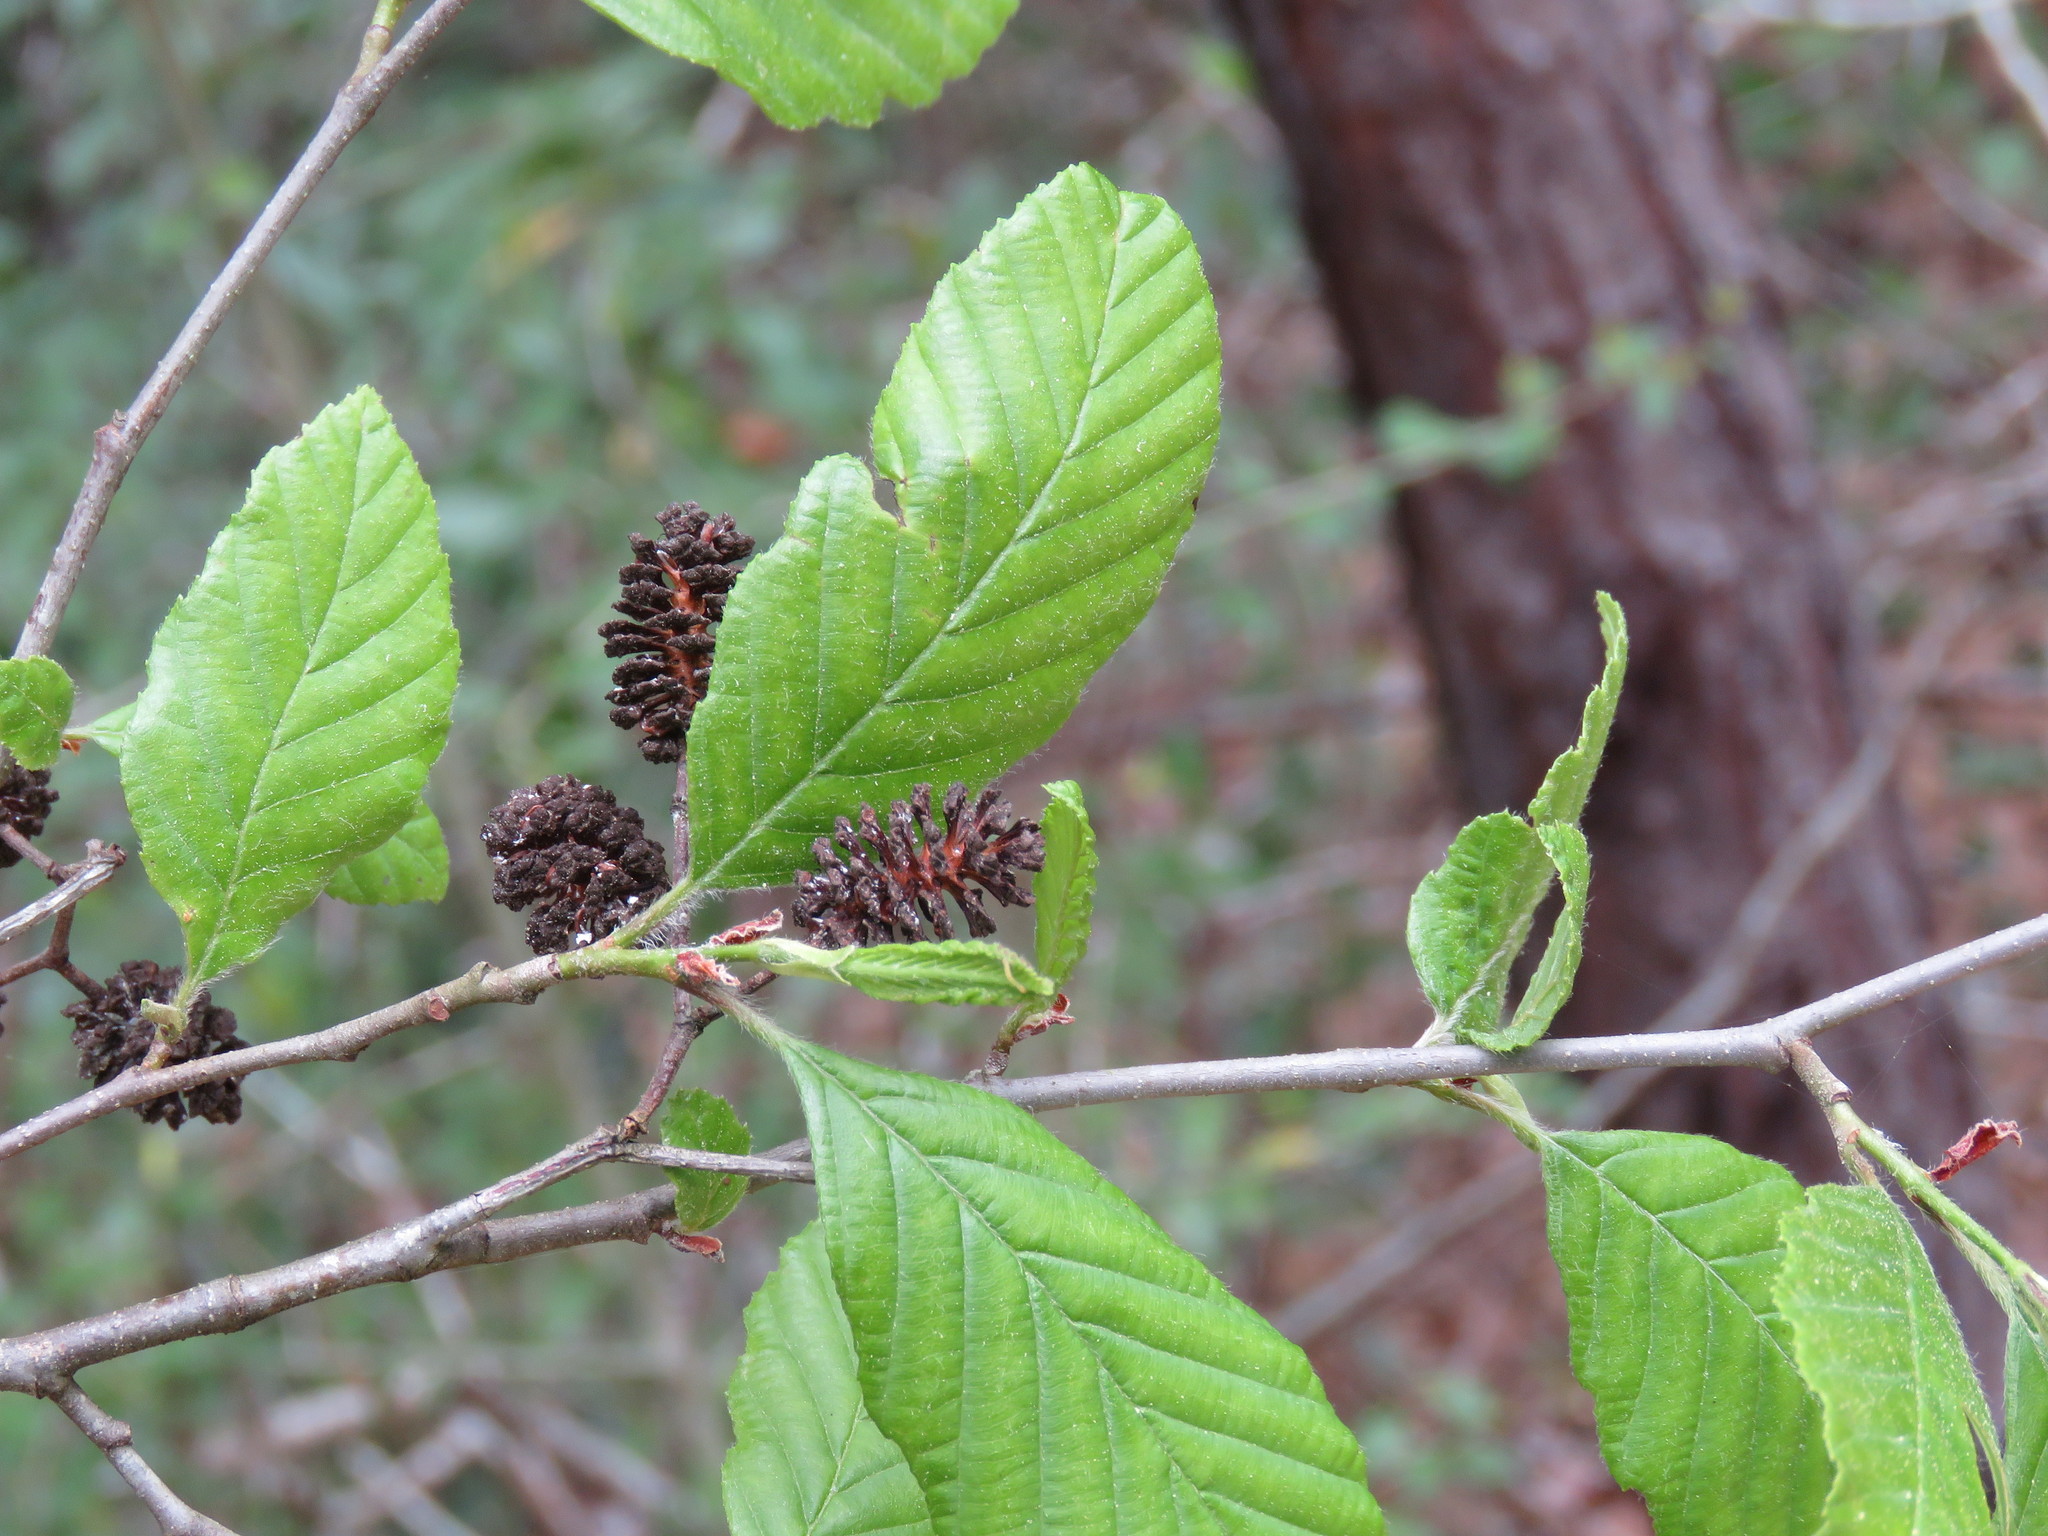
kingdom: Plantae
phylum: Tracheophyta
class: Magnoliopsida
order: Fagales
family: Betulaceae
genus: Alnus
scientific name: Alnus serrulata
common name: Hazel alder
